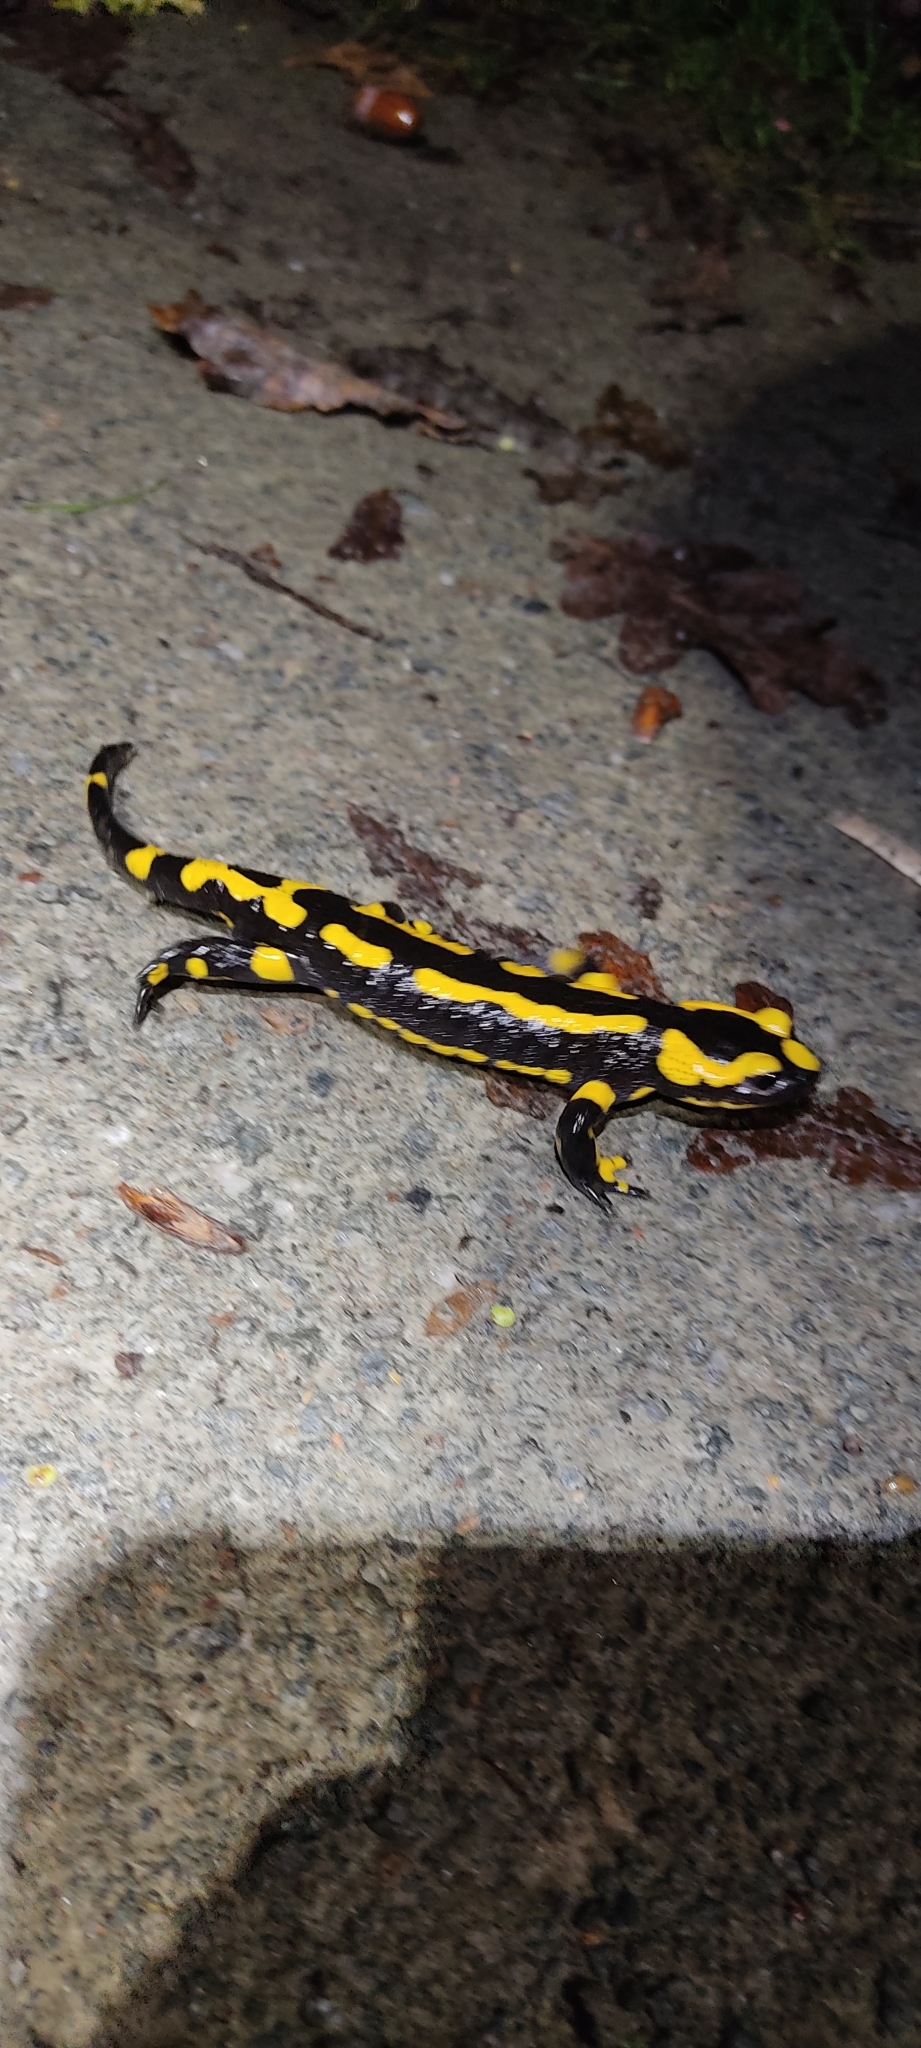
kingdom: Animalia
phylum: Chordata
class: Amphibia
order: Caudata
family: Salamandridae
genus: Salamandra
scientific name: Salamandra salamandra
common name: Fire salamander
